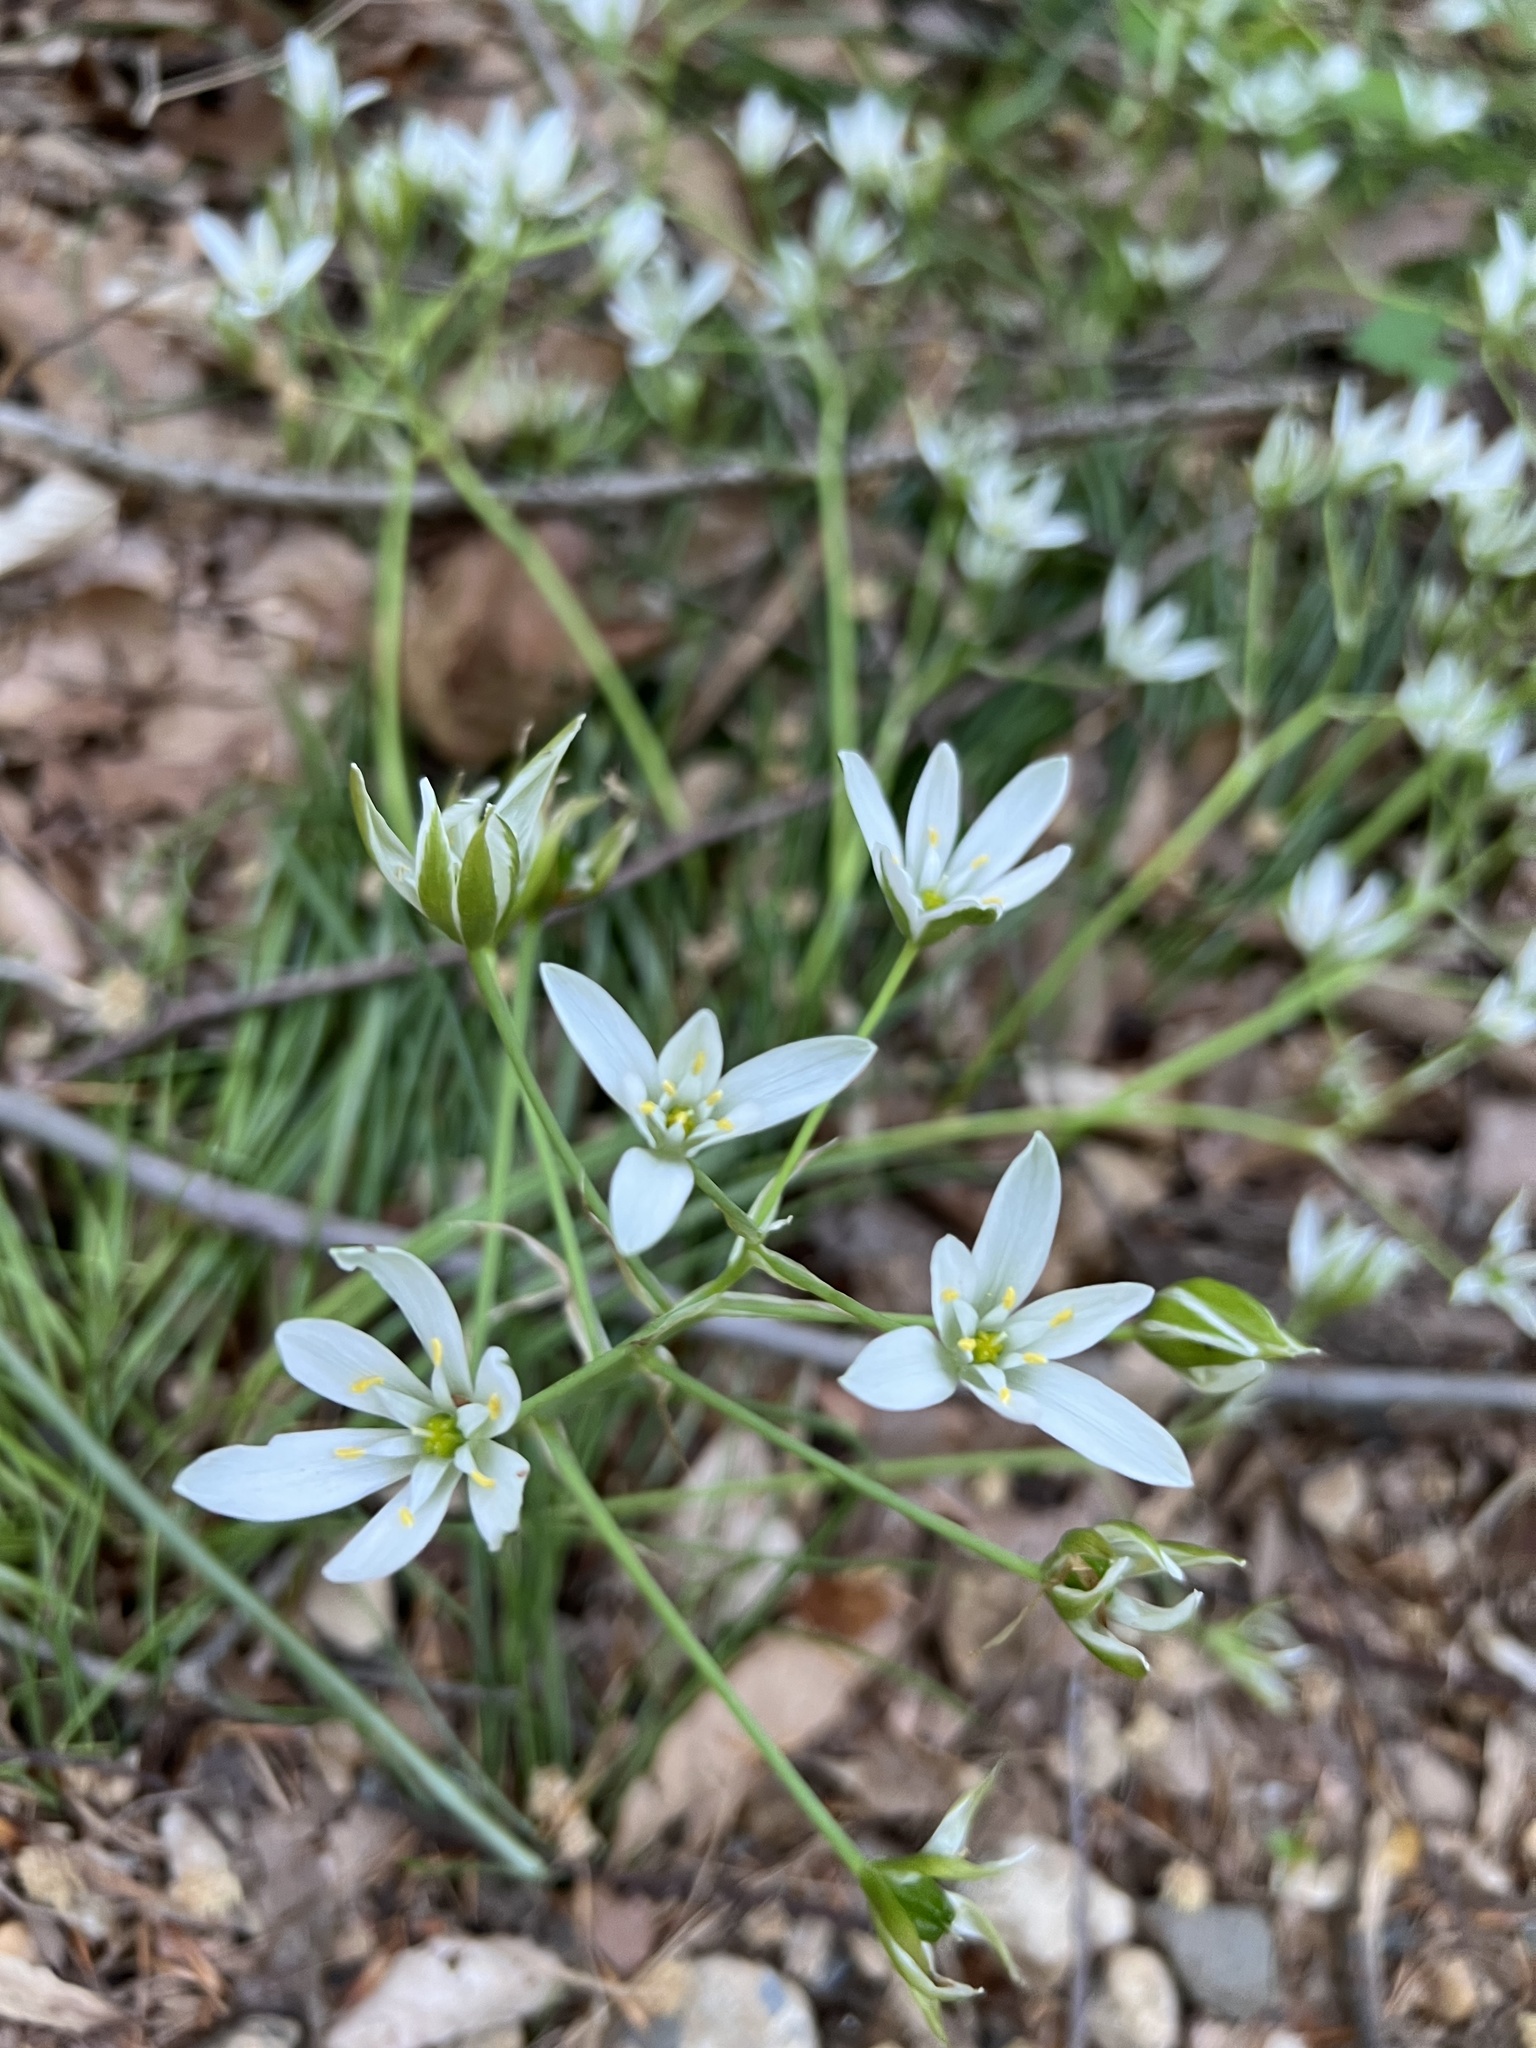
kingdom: Plantae
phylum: Tracheophyta
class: Liliopsida
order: Asparagales
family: Asparagaceae
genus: Ornithogalum
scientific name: Ornithogalum umbellatum
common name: Garden star-of-bethlehem
